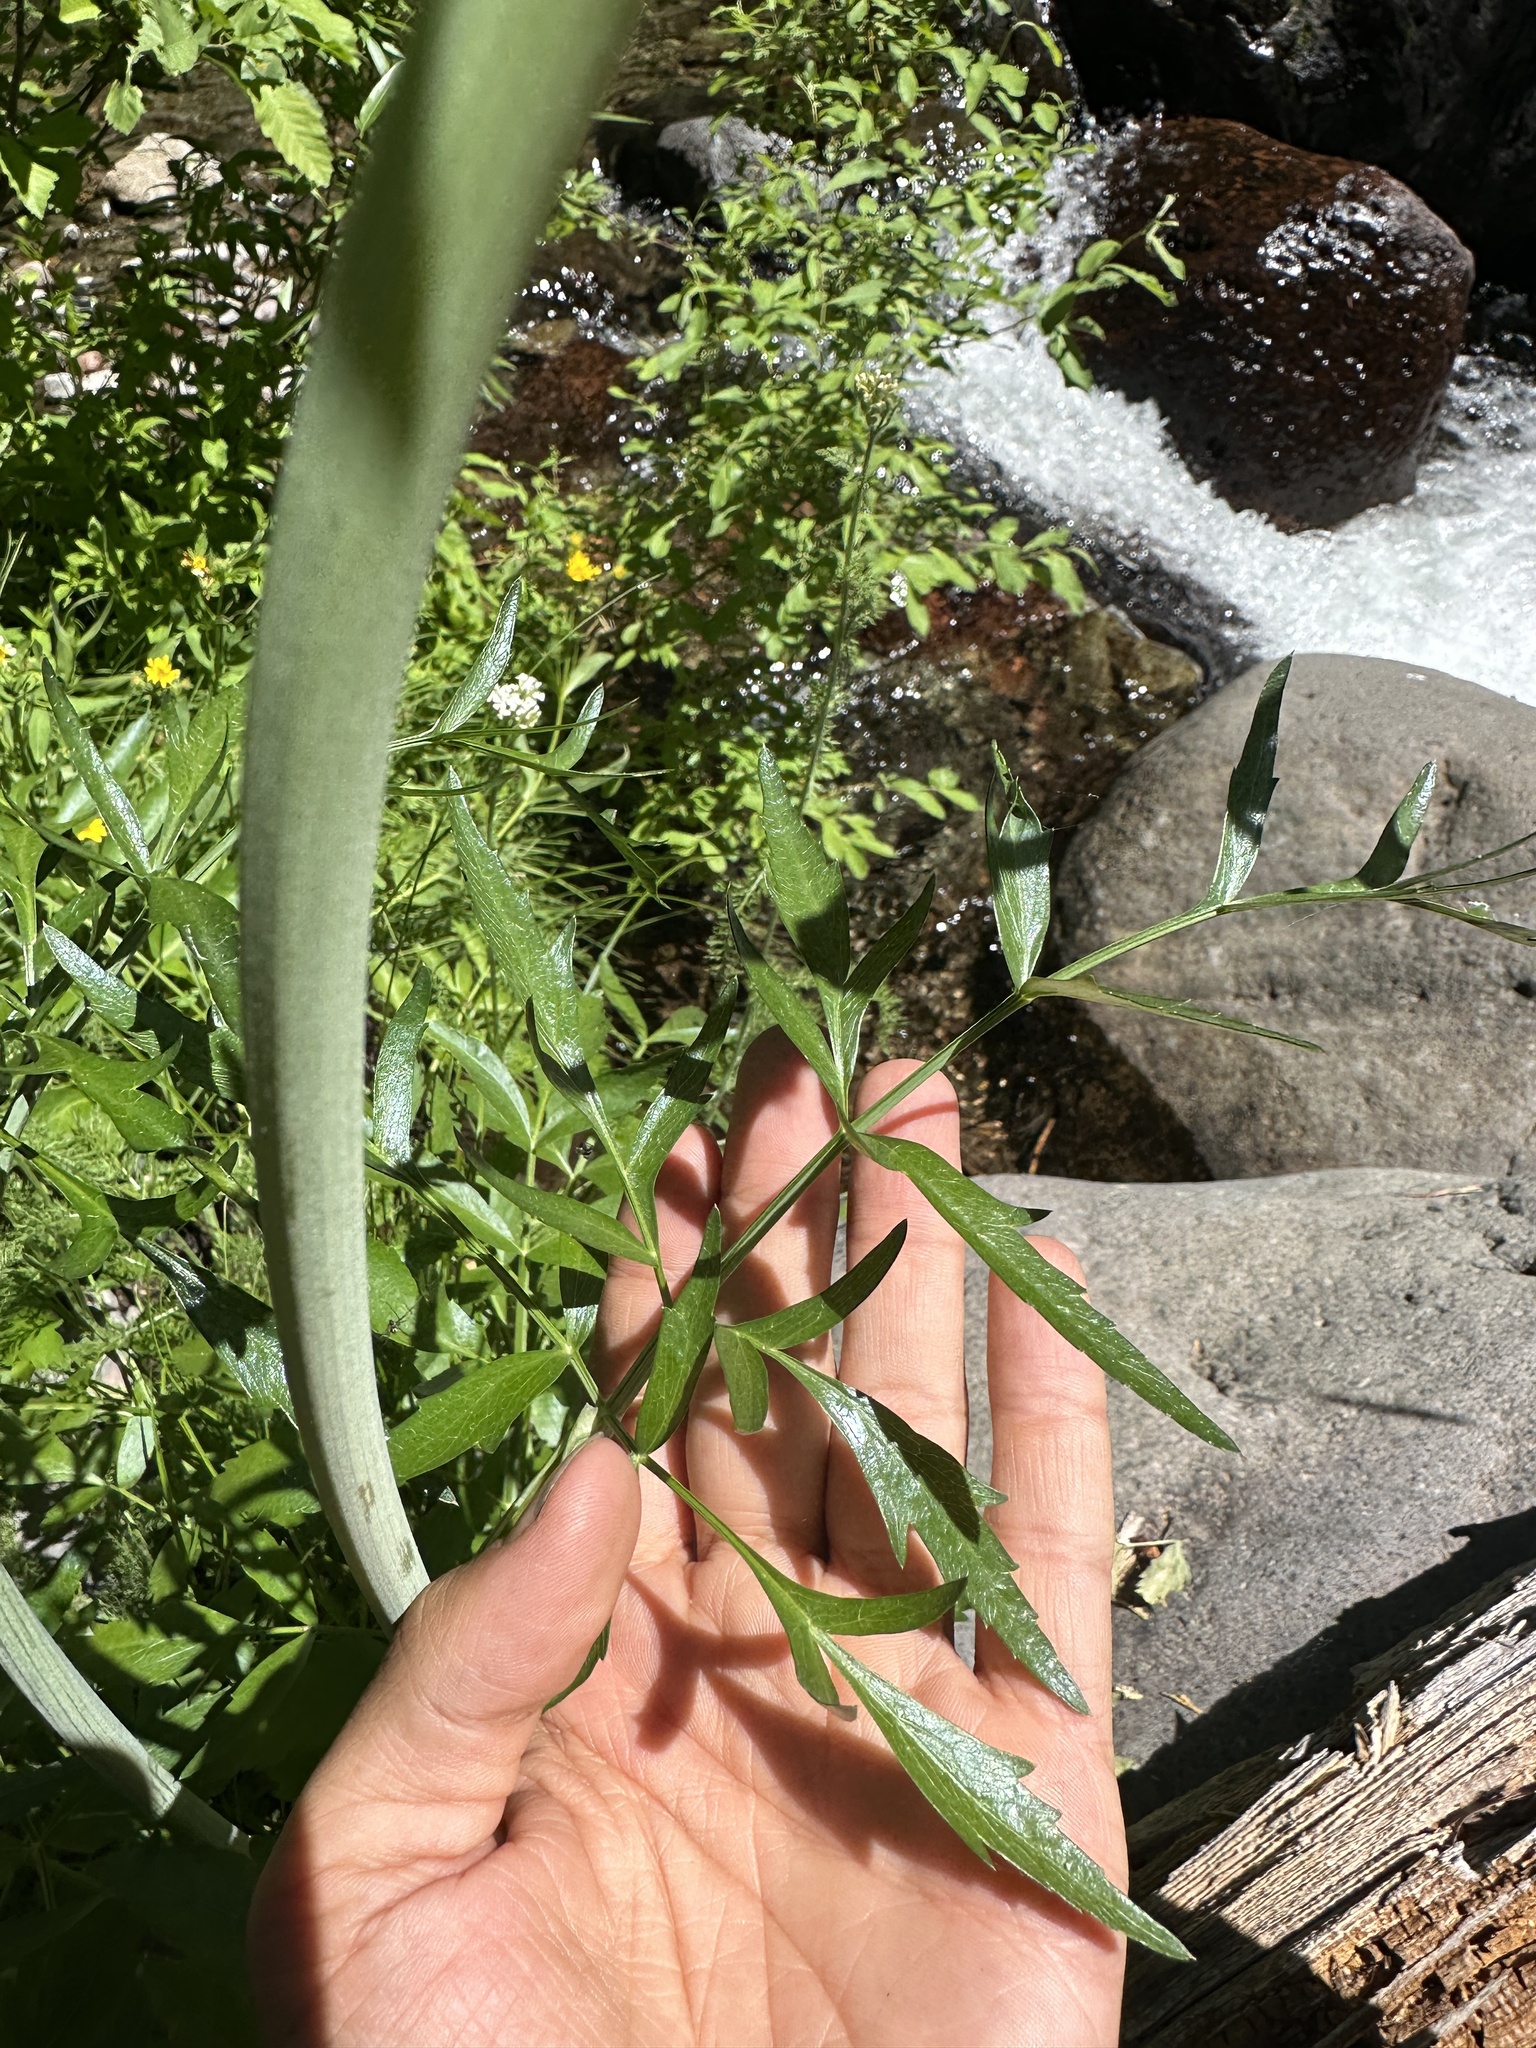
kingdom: Plantae
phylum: Tracheophyta
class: Magnoliopsida
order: Apiales
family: Apiaceae
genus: Angelica
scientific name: Angelica capitellata
